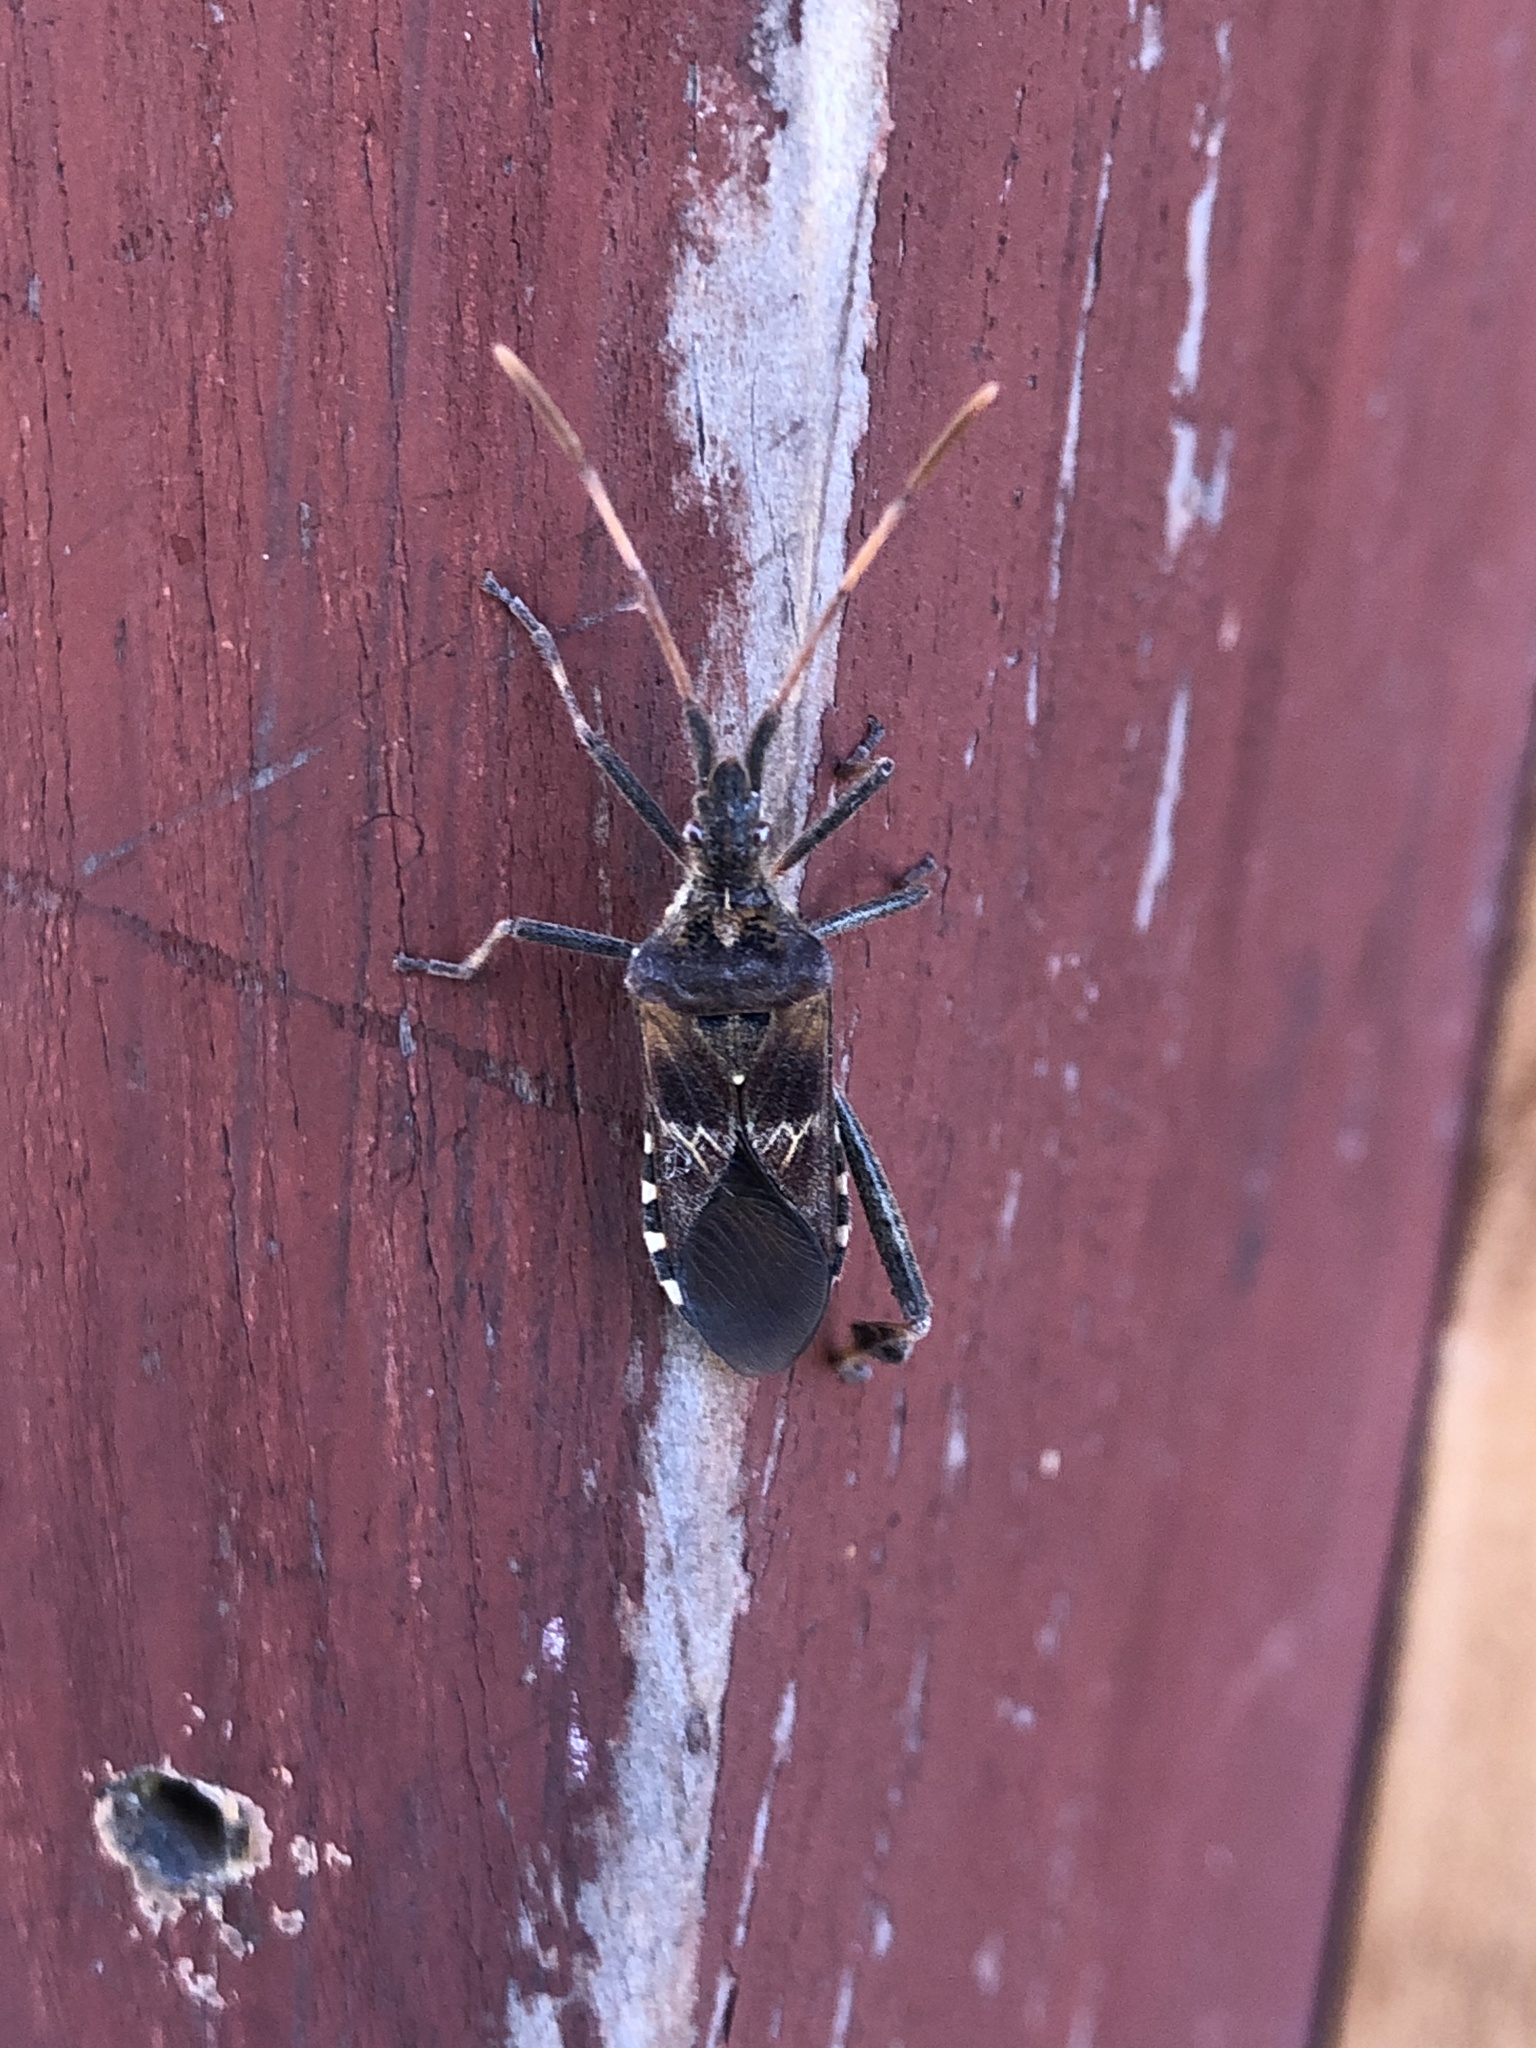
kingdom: Animalia
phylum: Arthropoda
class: Insecta
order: Hemiptera
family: Coreidae
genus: Leptoglossus
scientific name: Leptoglossus occidentalis
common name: Western conifer-seed bug
